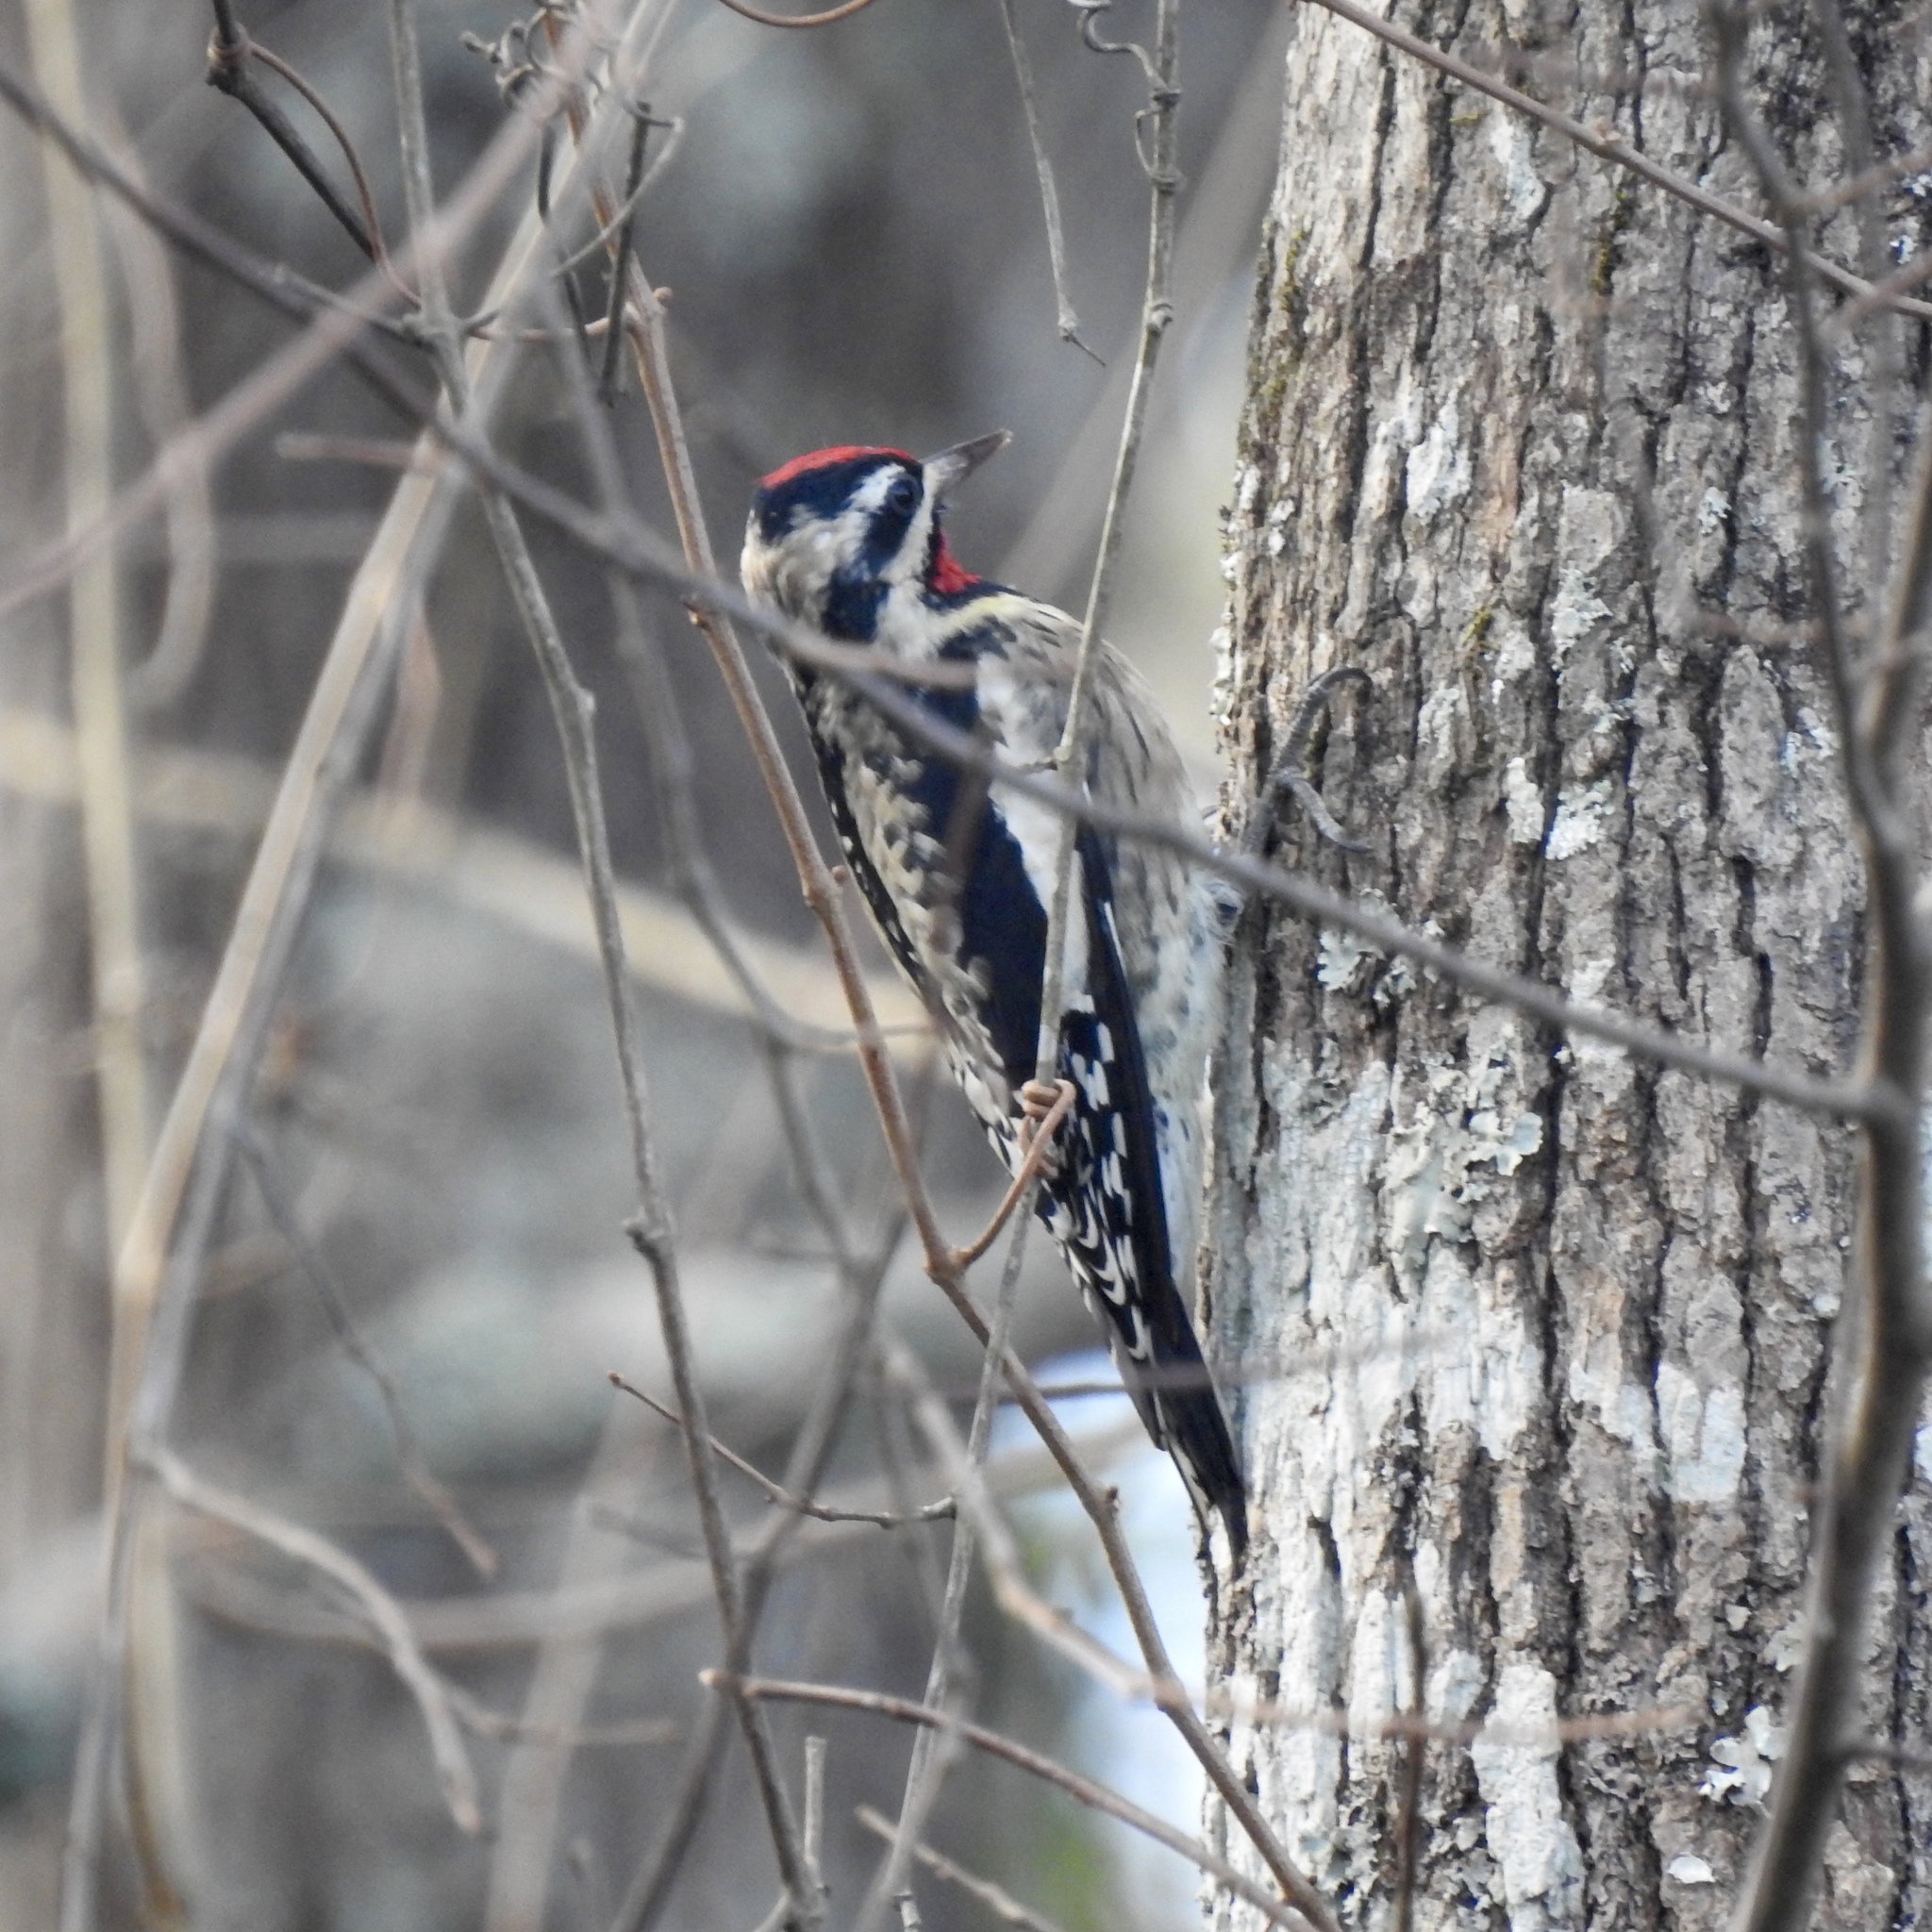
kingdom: Animalia
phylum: Chordata
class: Aves
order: Piciformes
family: Picidae
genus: Sphyrapicus
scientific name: Sphyrapicus varius
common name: Yellow-bellied sapsucker
